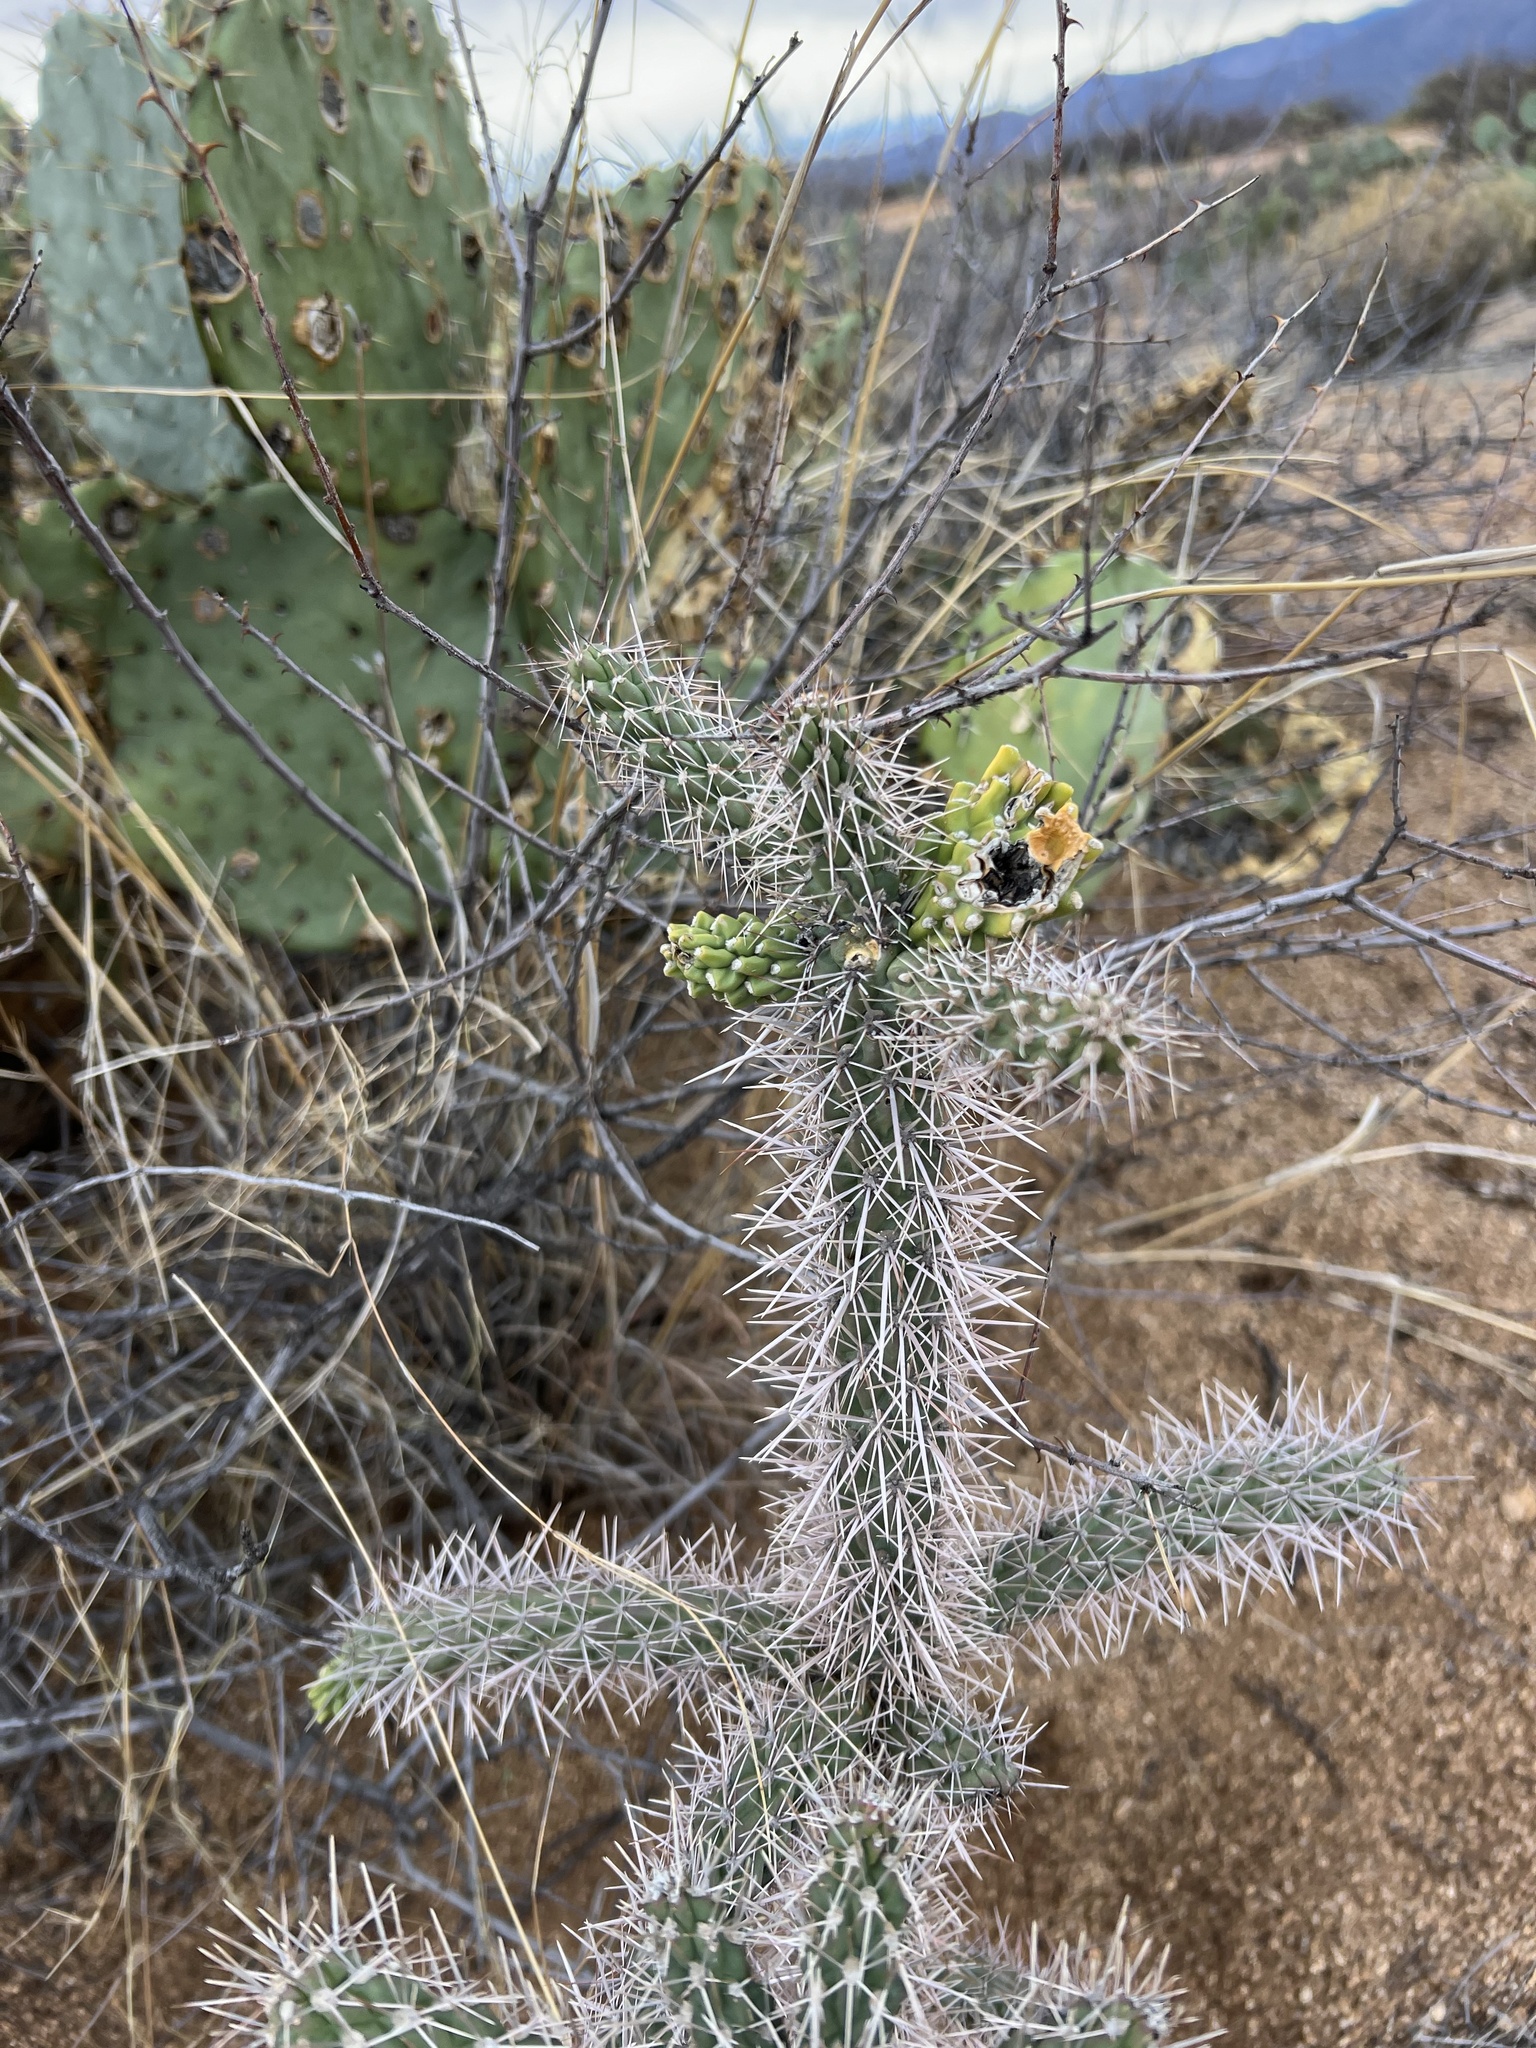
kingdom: Plantae
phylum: Tracheophyta
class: Magnoliopsida
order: Caryophyllales
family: Cactaceae
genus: Cylindropuntia
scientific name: Cylindropuntia imbricata
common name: Candelabrum cactus
